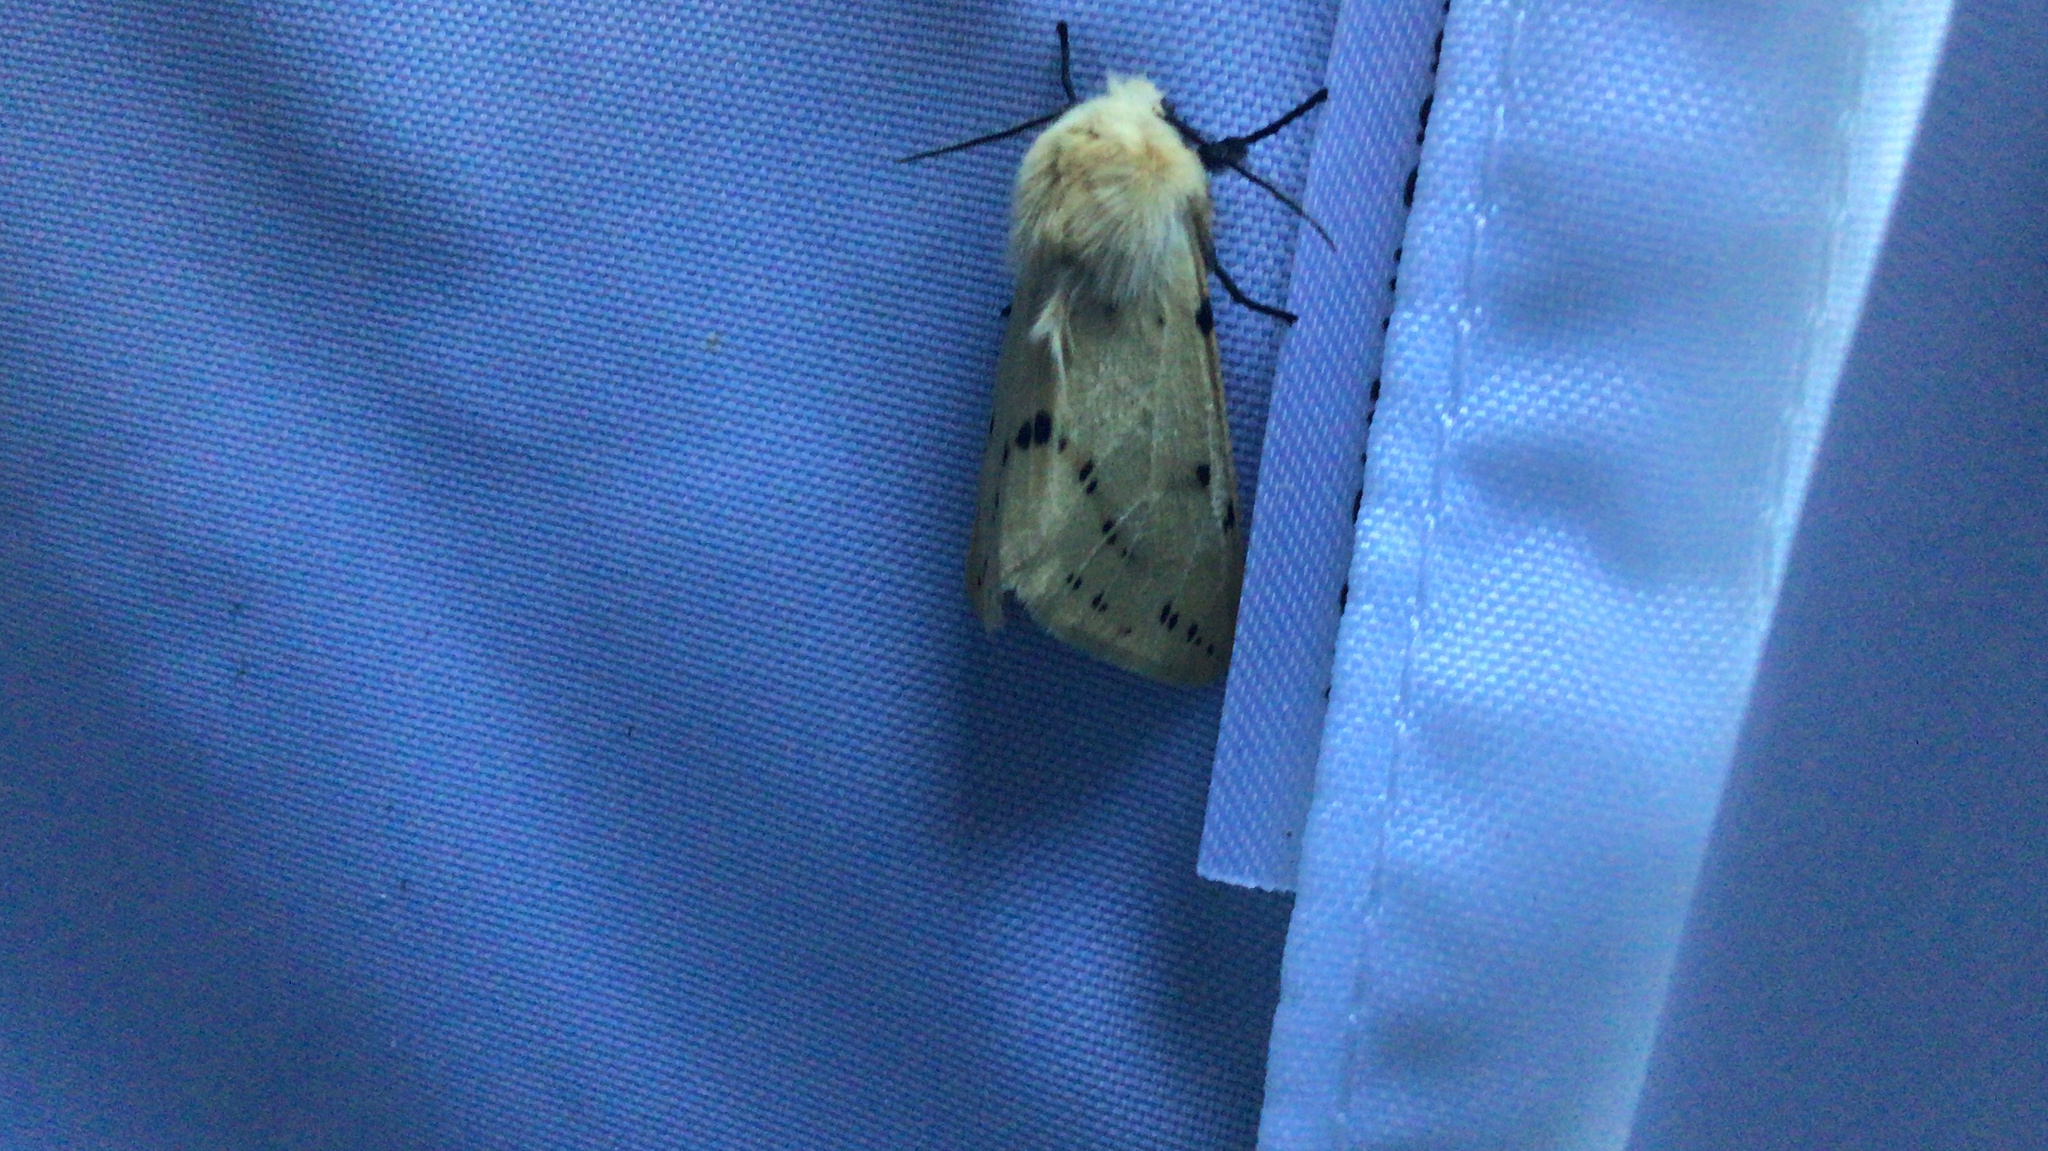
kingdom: Animalia
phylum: Arthropoda
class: Insecta
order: Lepidoptera
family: Erebidae
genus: Spilarctia
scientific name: Spilarctia lutea
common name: Buff ermine
